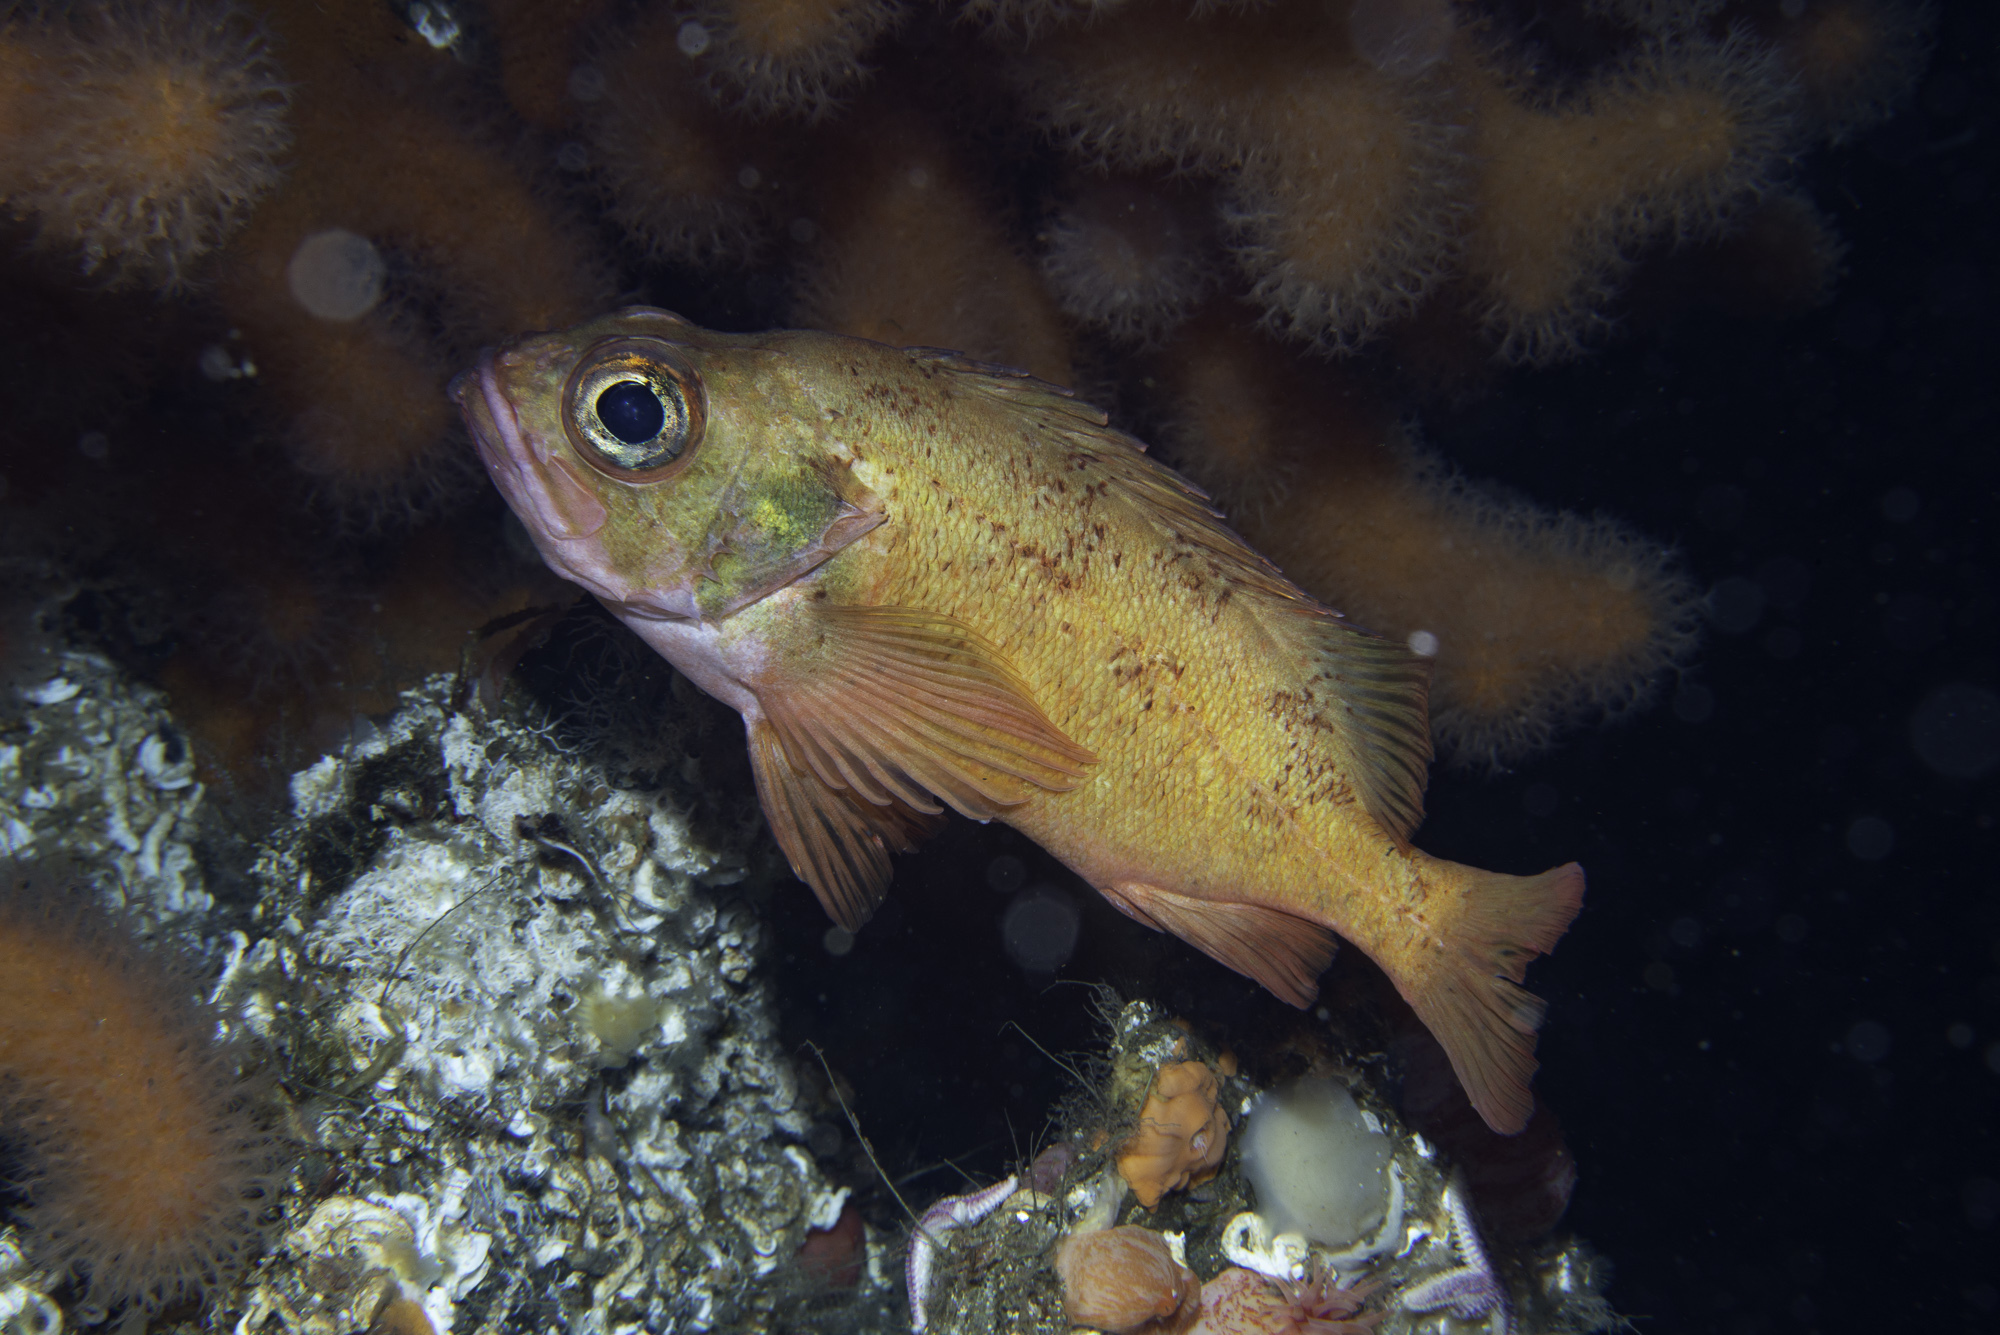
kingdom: Animalia
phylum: Chordata
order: Scorpaeniformes
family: Sebastidae
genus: Sebastes
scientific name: Sebastes viviparus
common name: Norway haddock
